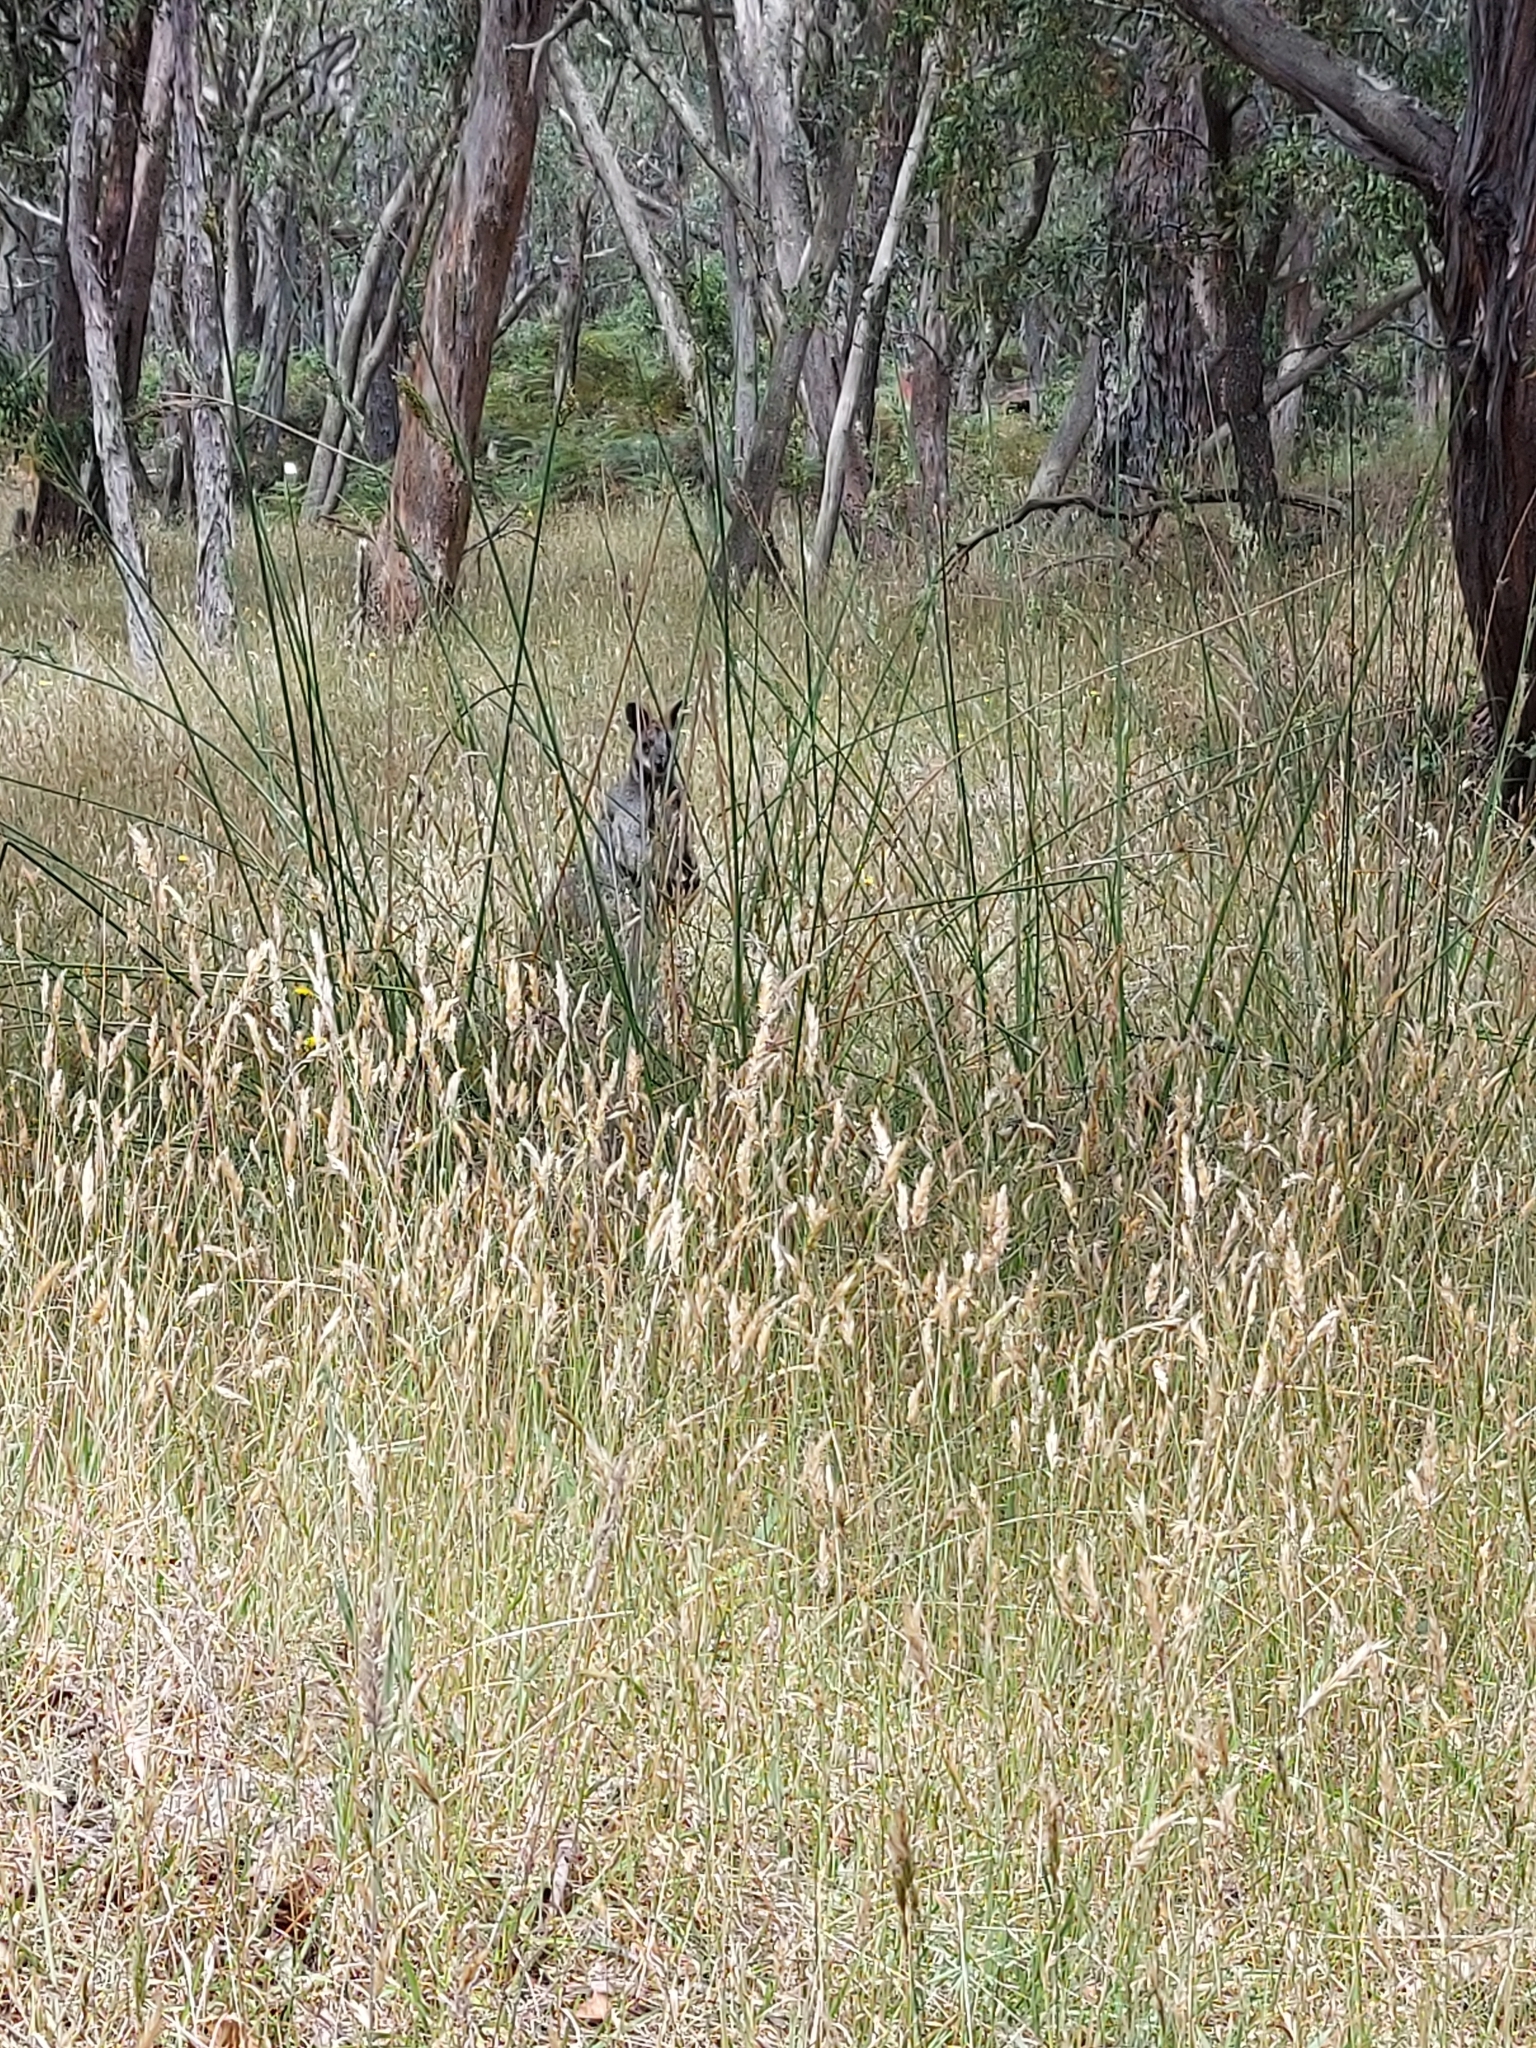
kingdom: Animalia
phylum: Chordata
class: Mammalia
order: Diprotodontia
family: Macropodidae
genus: Wallabia
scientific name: Wallabia bicolor
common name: Swamp wallaby
